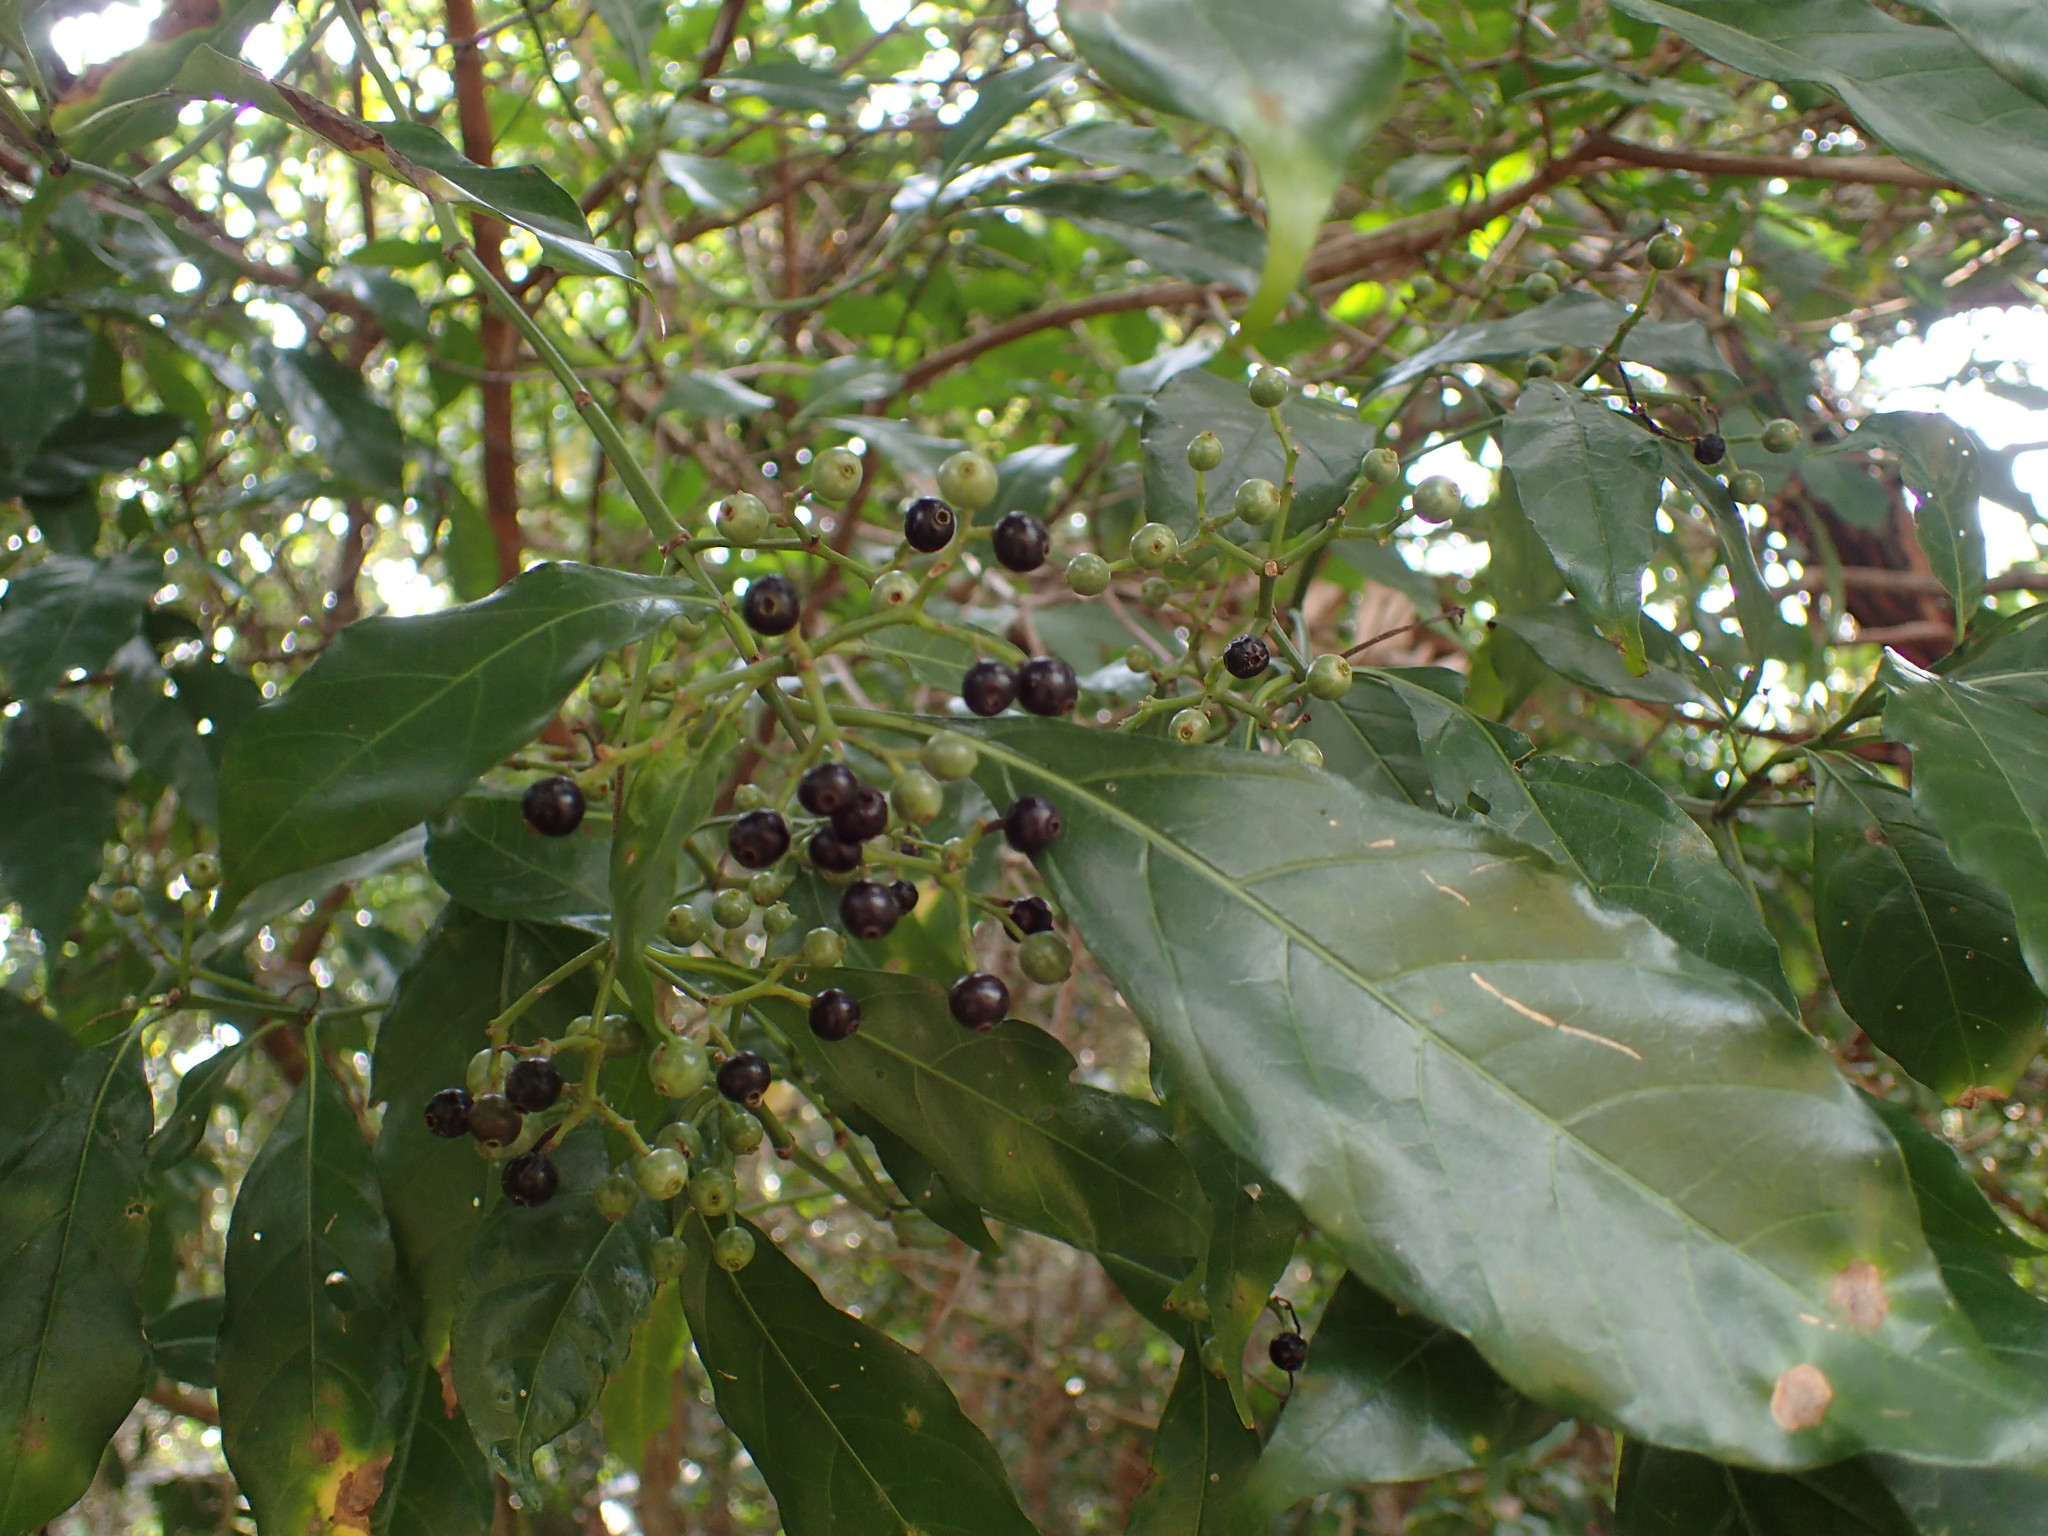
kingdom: Plantae
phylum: Tracheophyta
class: Magnoliopsida
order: Gentianales
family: Rubiaceae
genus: Tarenna
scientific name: Tarenna pavettoides
